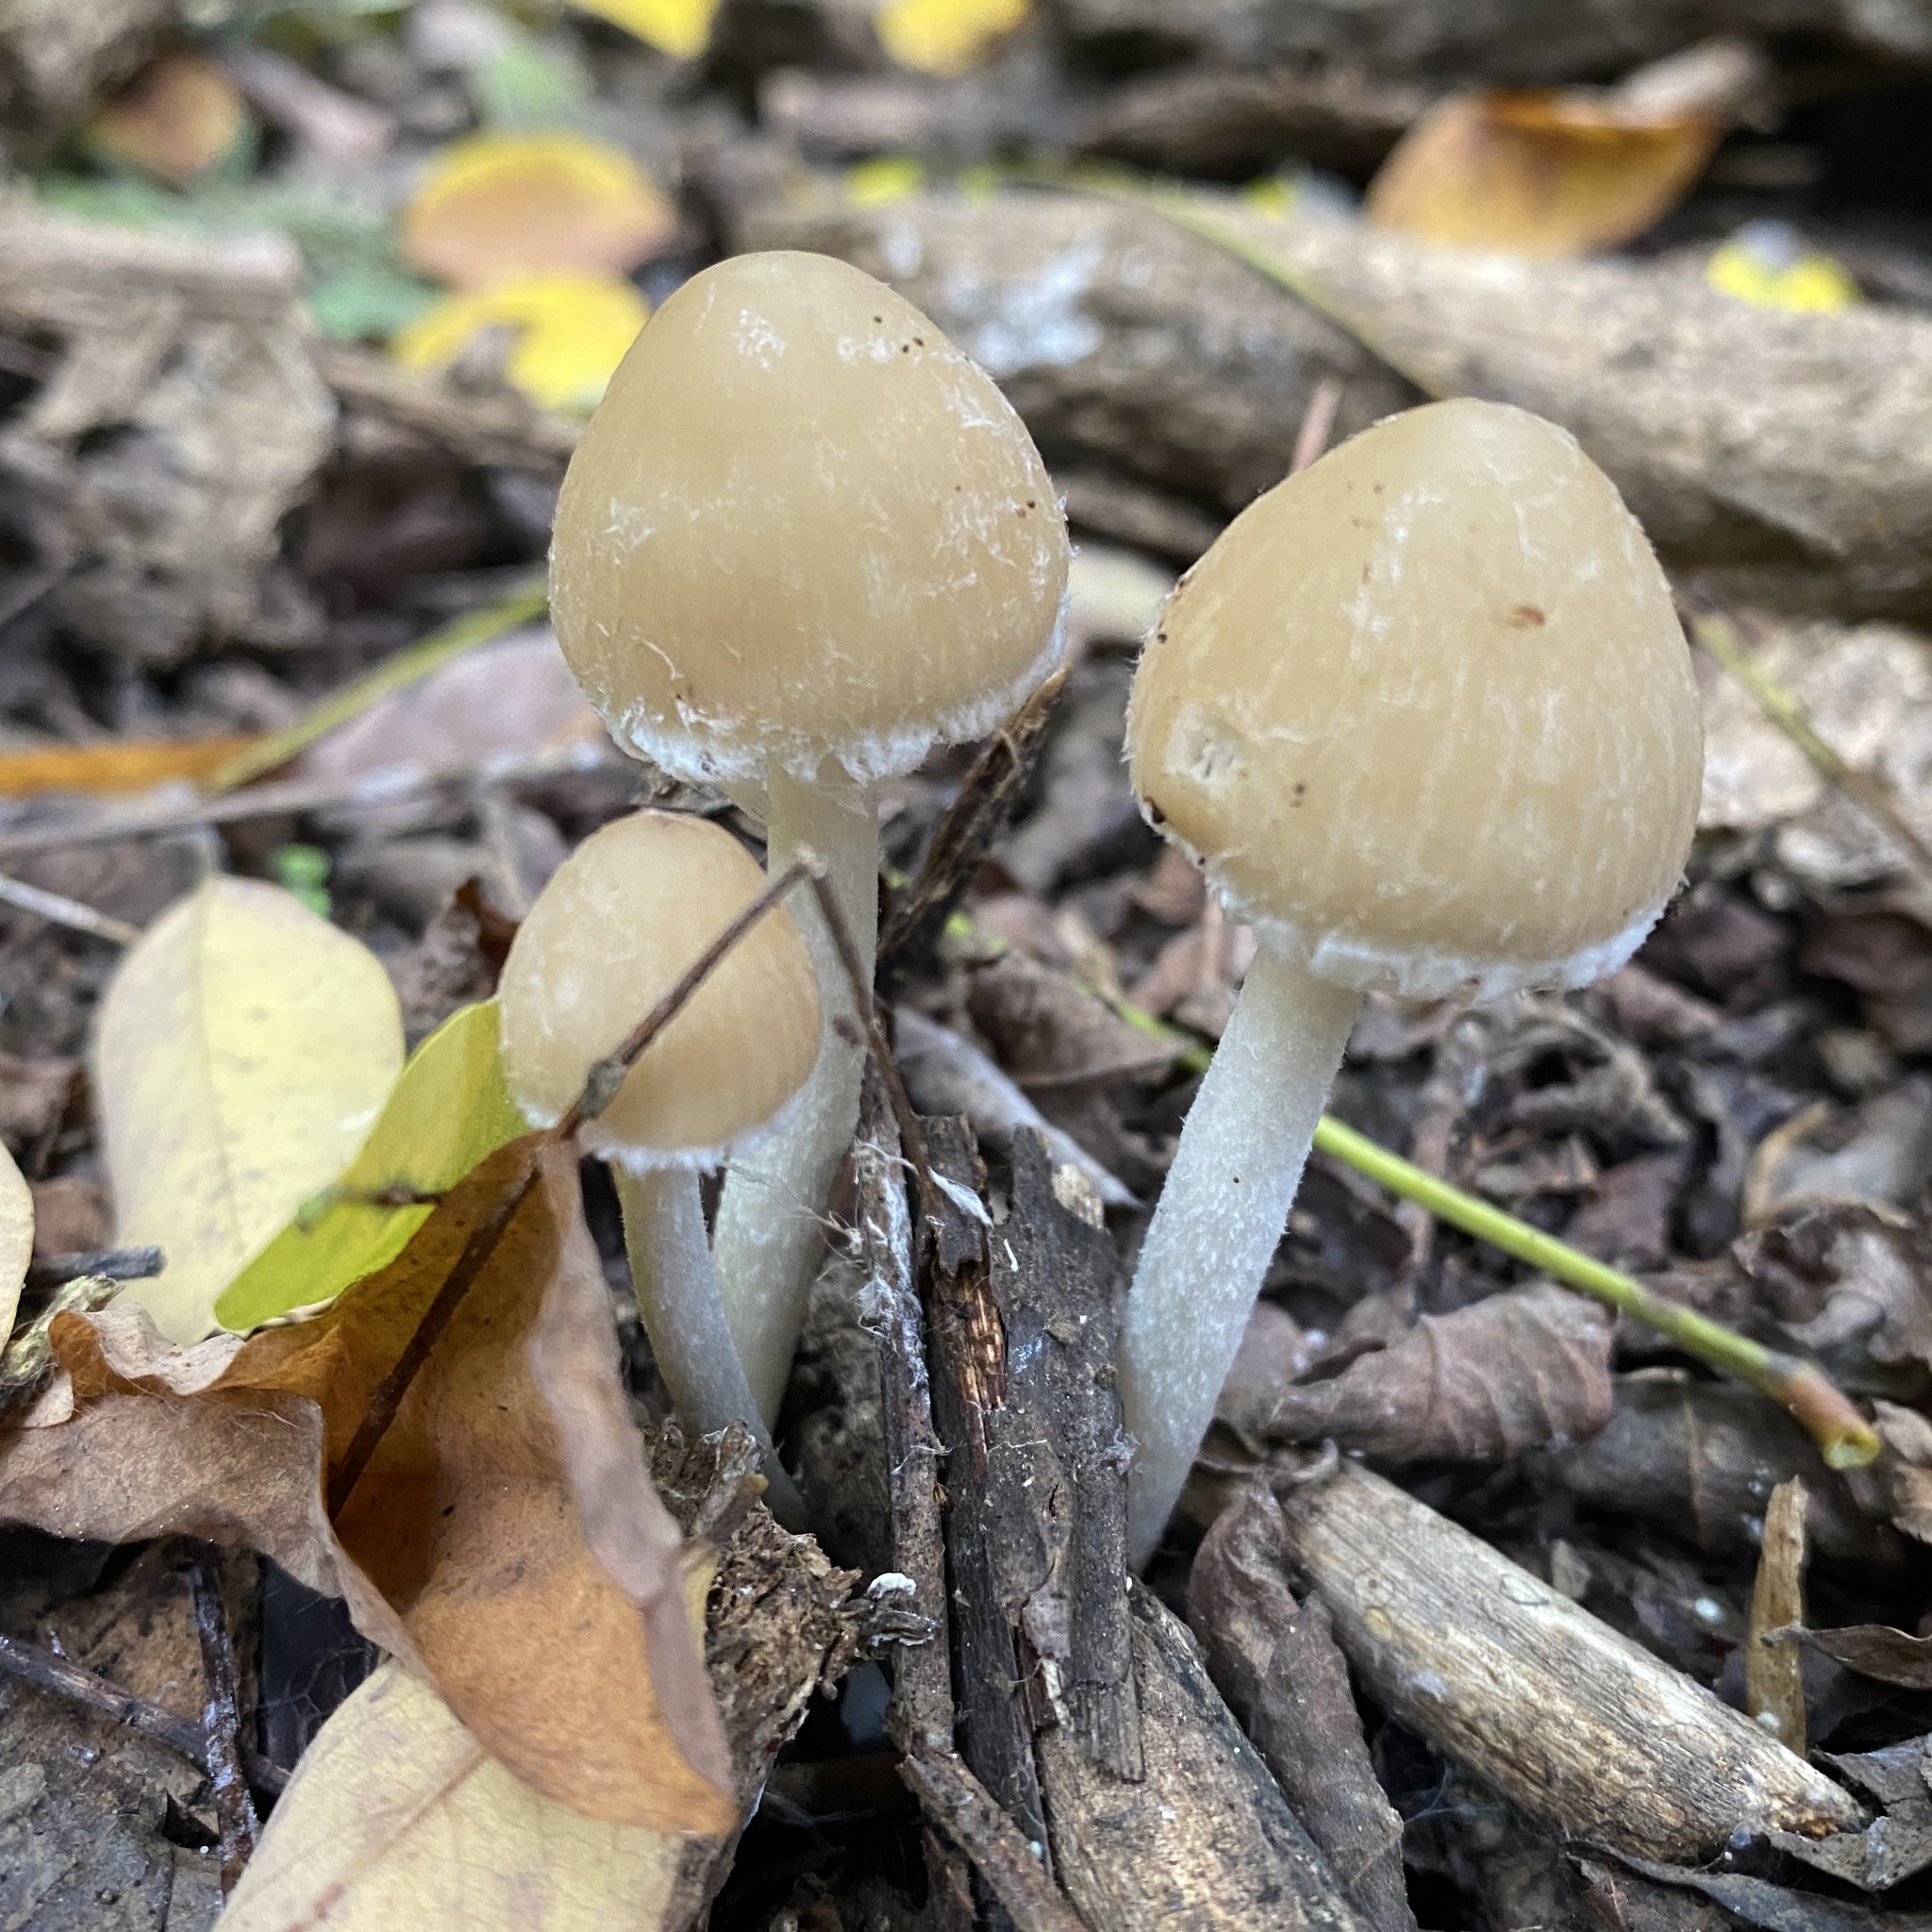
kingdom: Fungi
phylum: Basidiomycota
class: Agaricomycetes
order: Agaricales
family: Psathyrellaceae
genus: Candolleomyces
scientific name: Candolleomyces candolleanus
